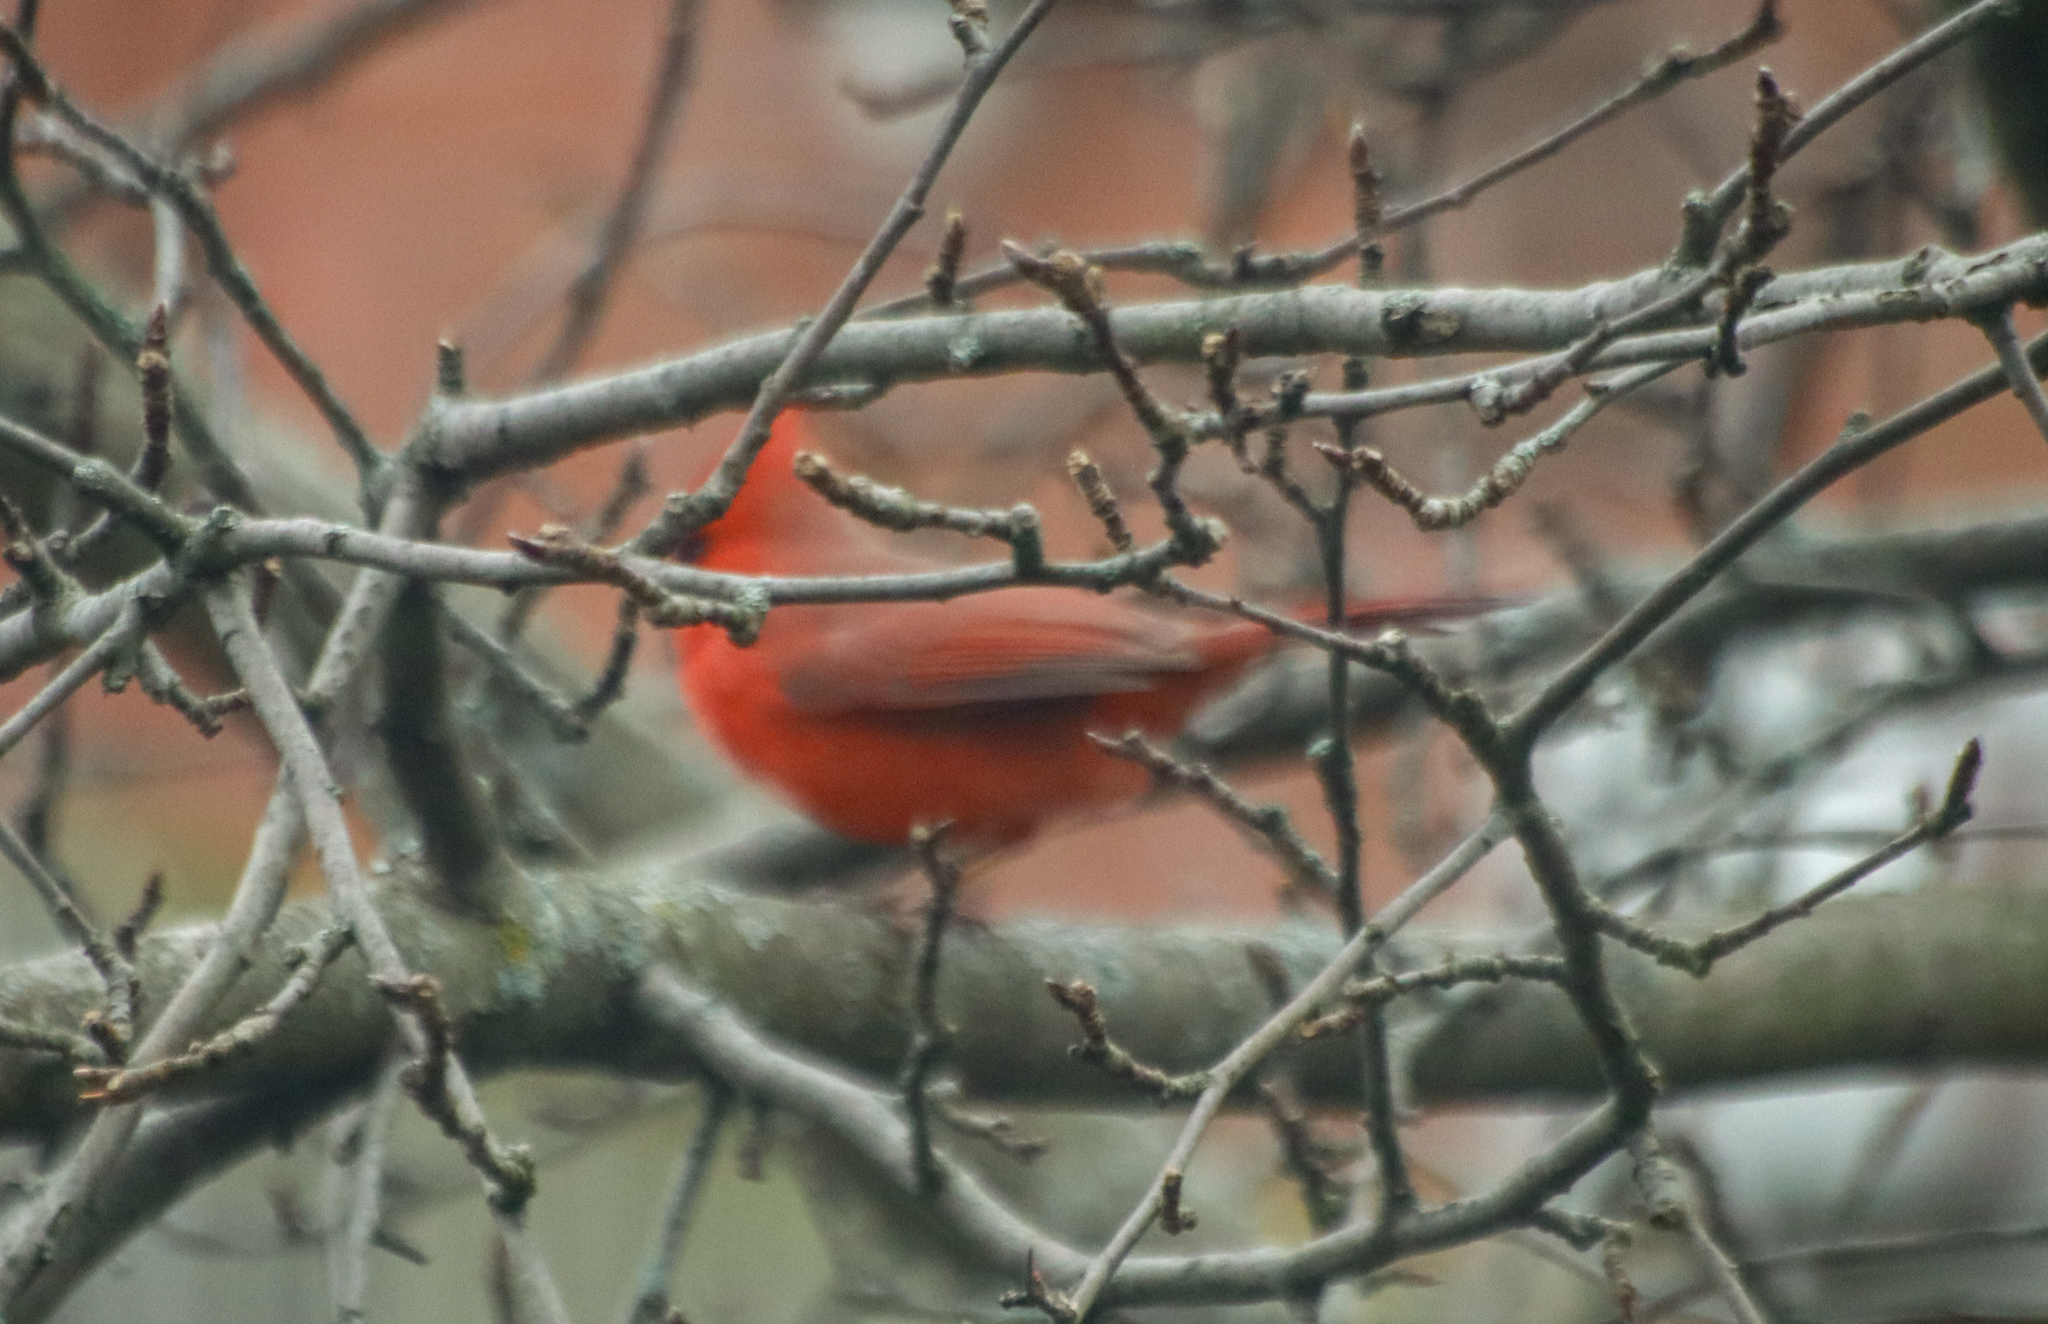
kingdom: Animalia
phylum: Chordata
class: Aves
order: Passeriformes
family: Cardinalidae
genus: Cardinalis
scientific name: Cardinalis cardinalis
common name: Northern cardinal
